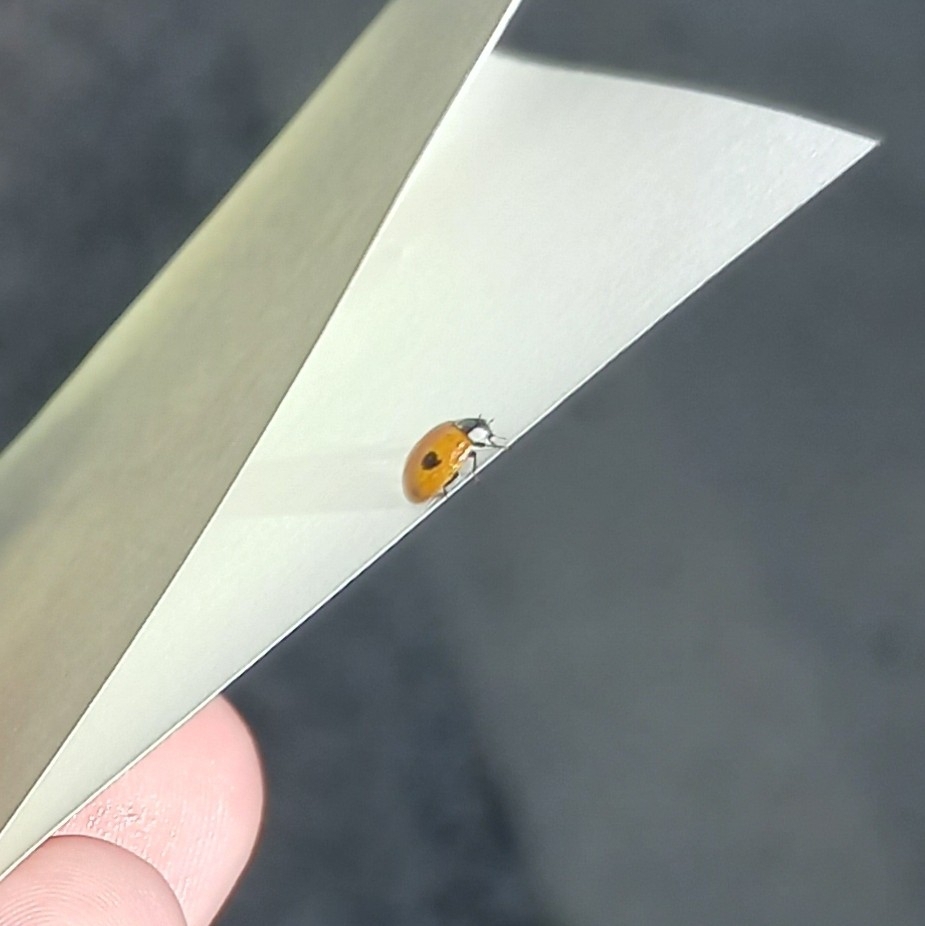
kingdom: Animalia
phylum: Arthropoda
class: Insecta
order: Coleoptera
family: Coccinellidae
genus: Adalia
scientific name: Adalia bipunctata
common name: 2-spot ladybird
